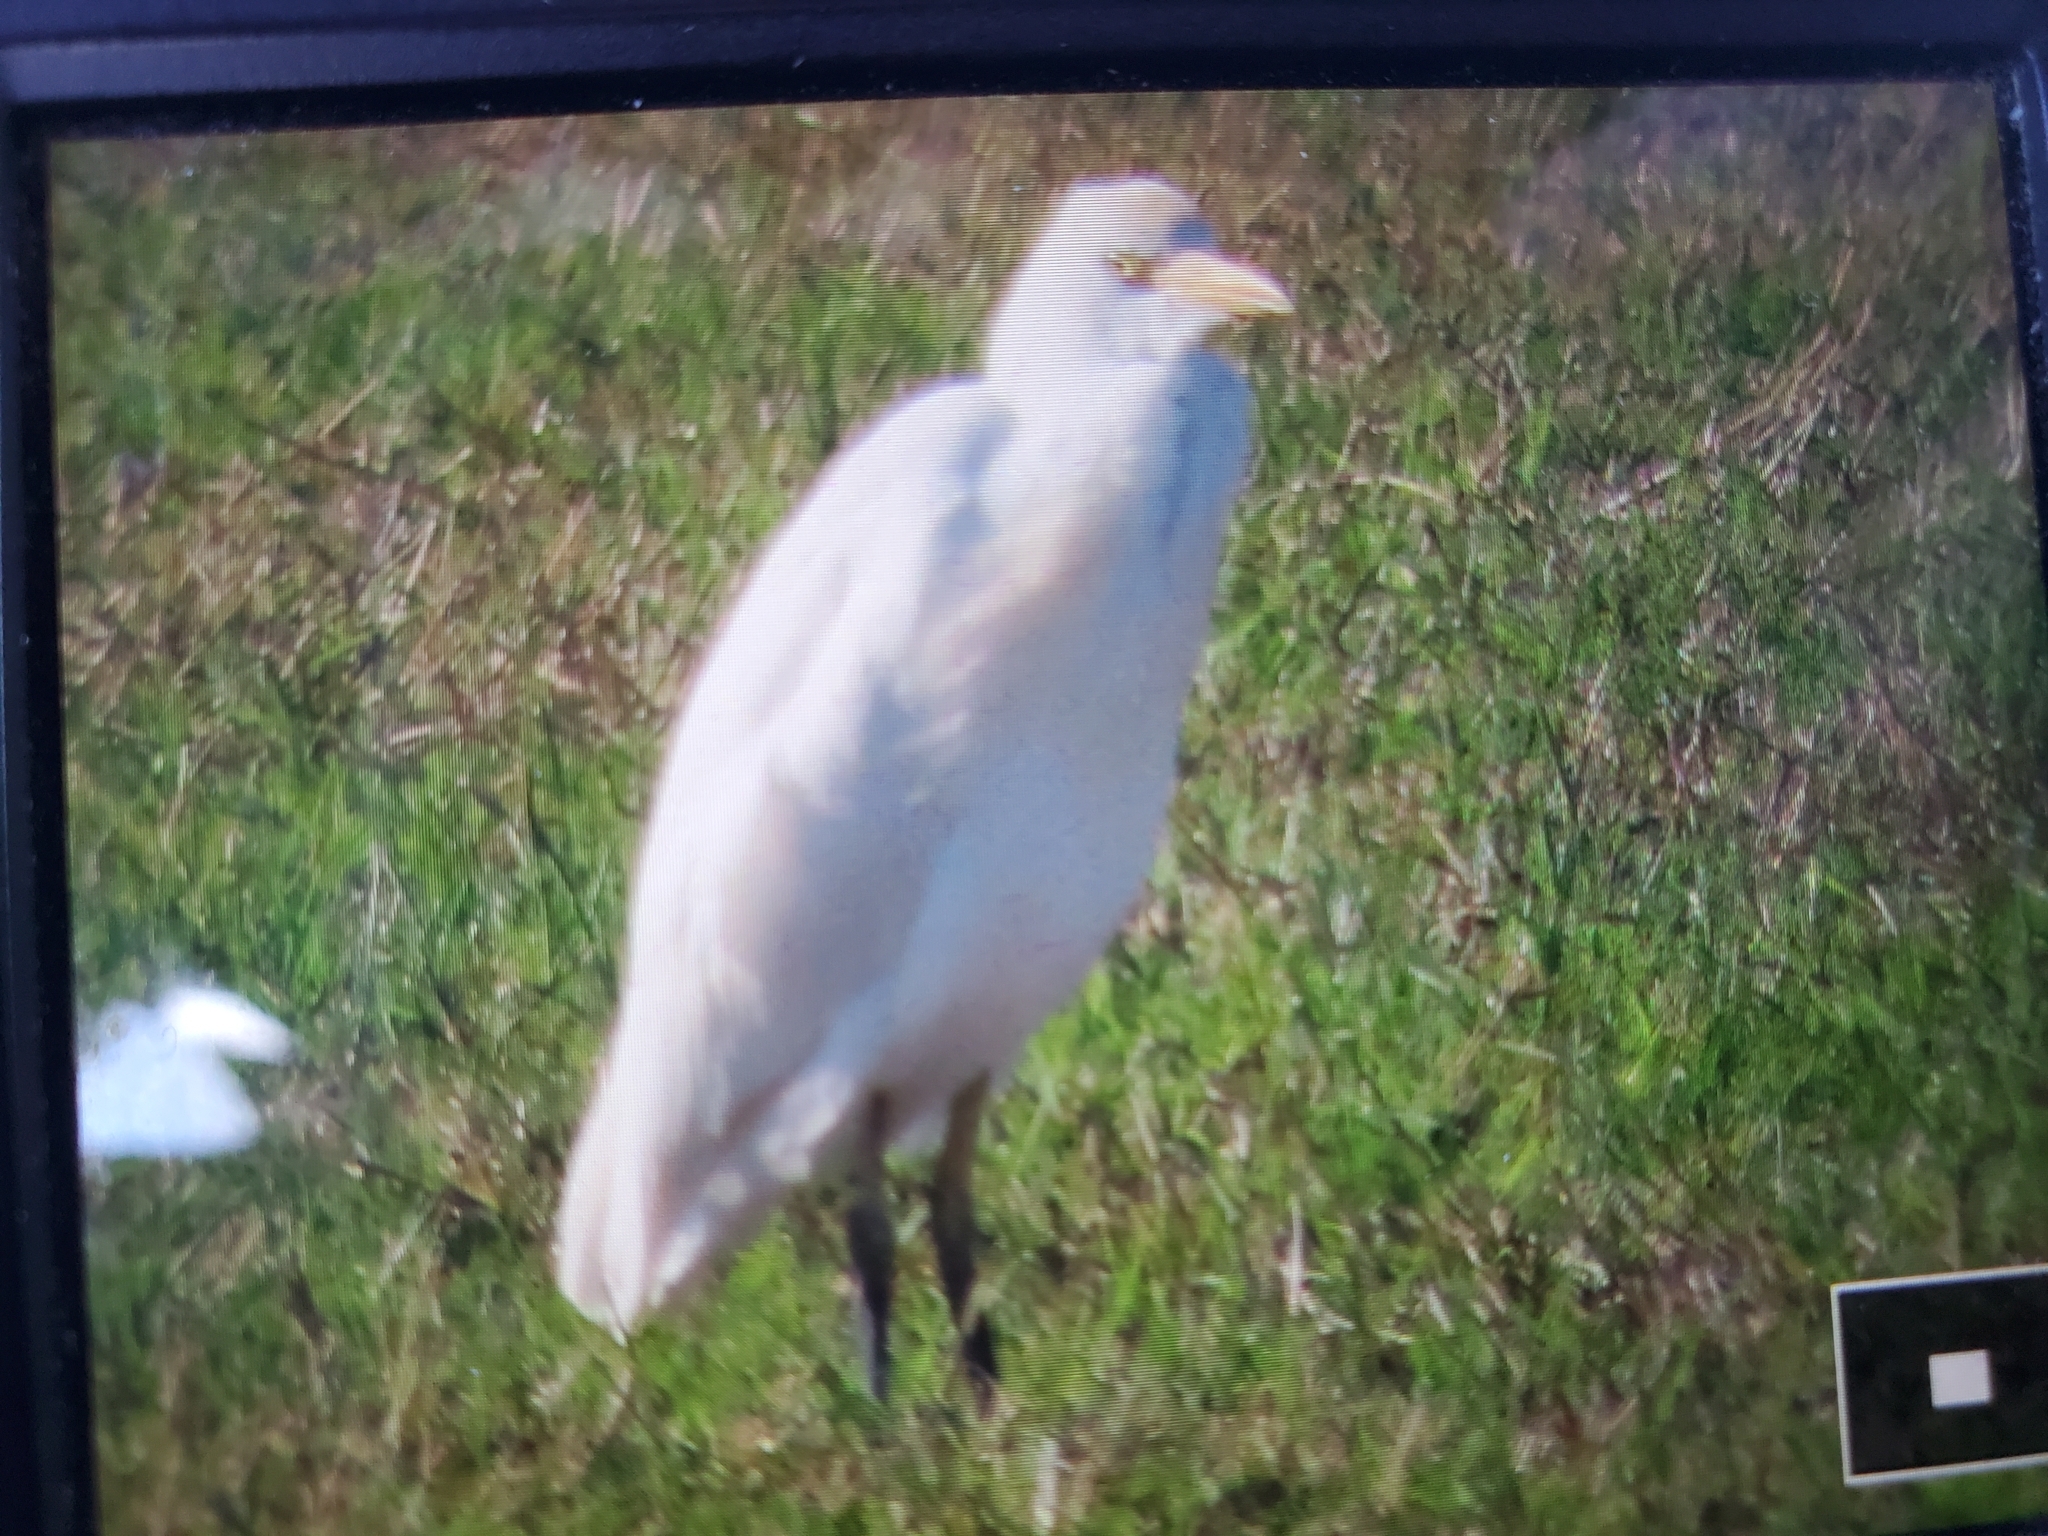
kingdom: Animalia
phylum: Chordata
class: Aves
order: Pelecaniformes
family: Ardeidae
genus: Bubulcus
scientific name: Bubulcus ibis
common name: Cattle egret
